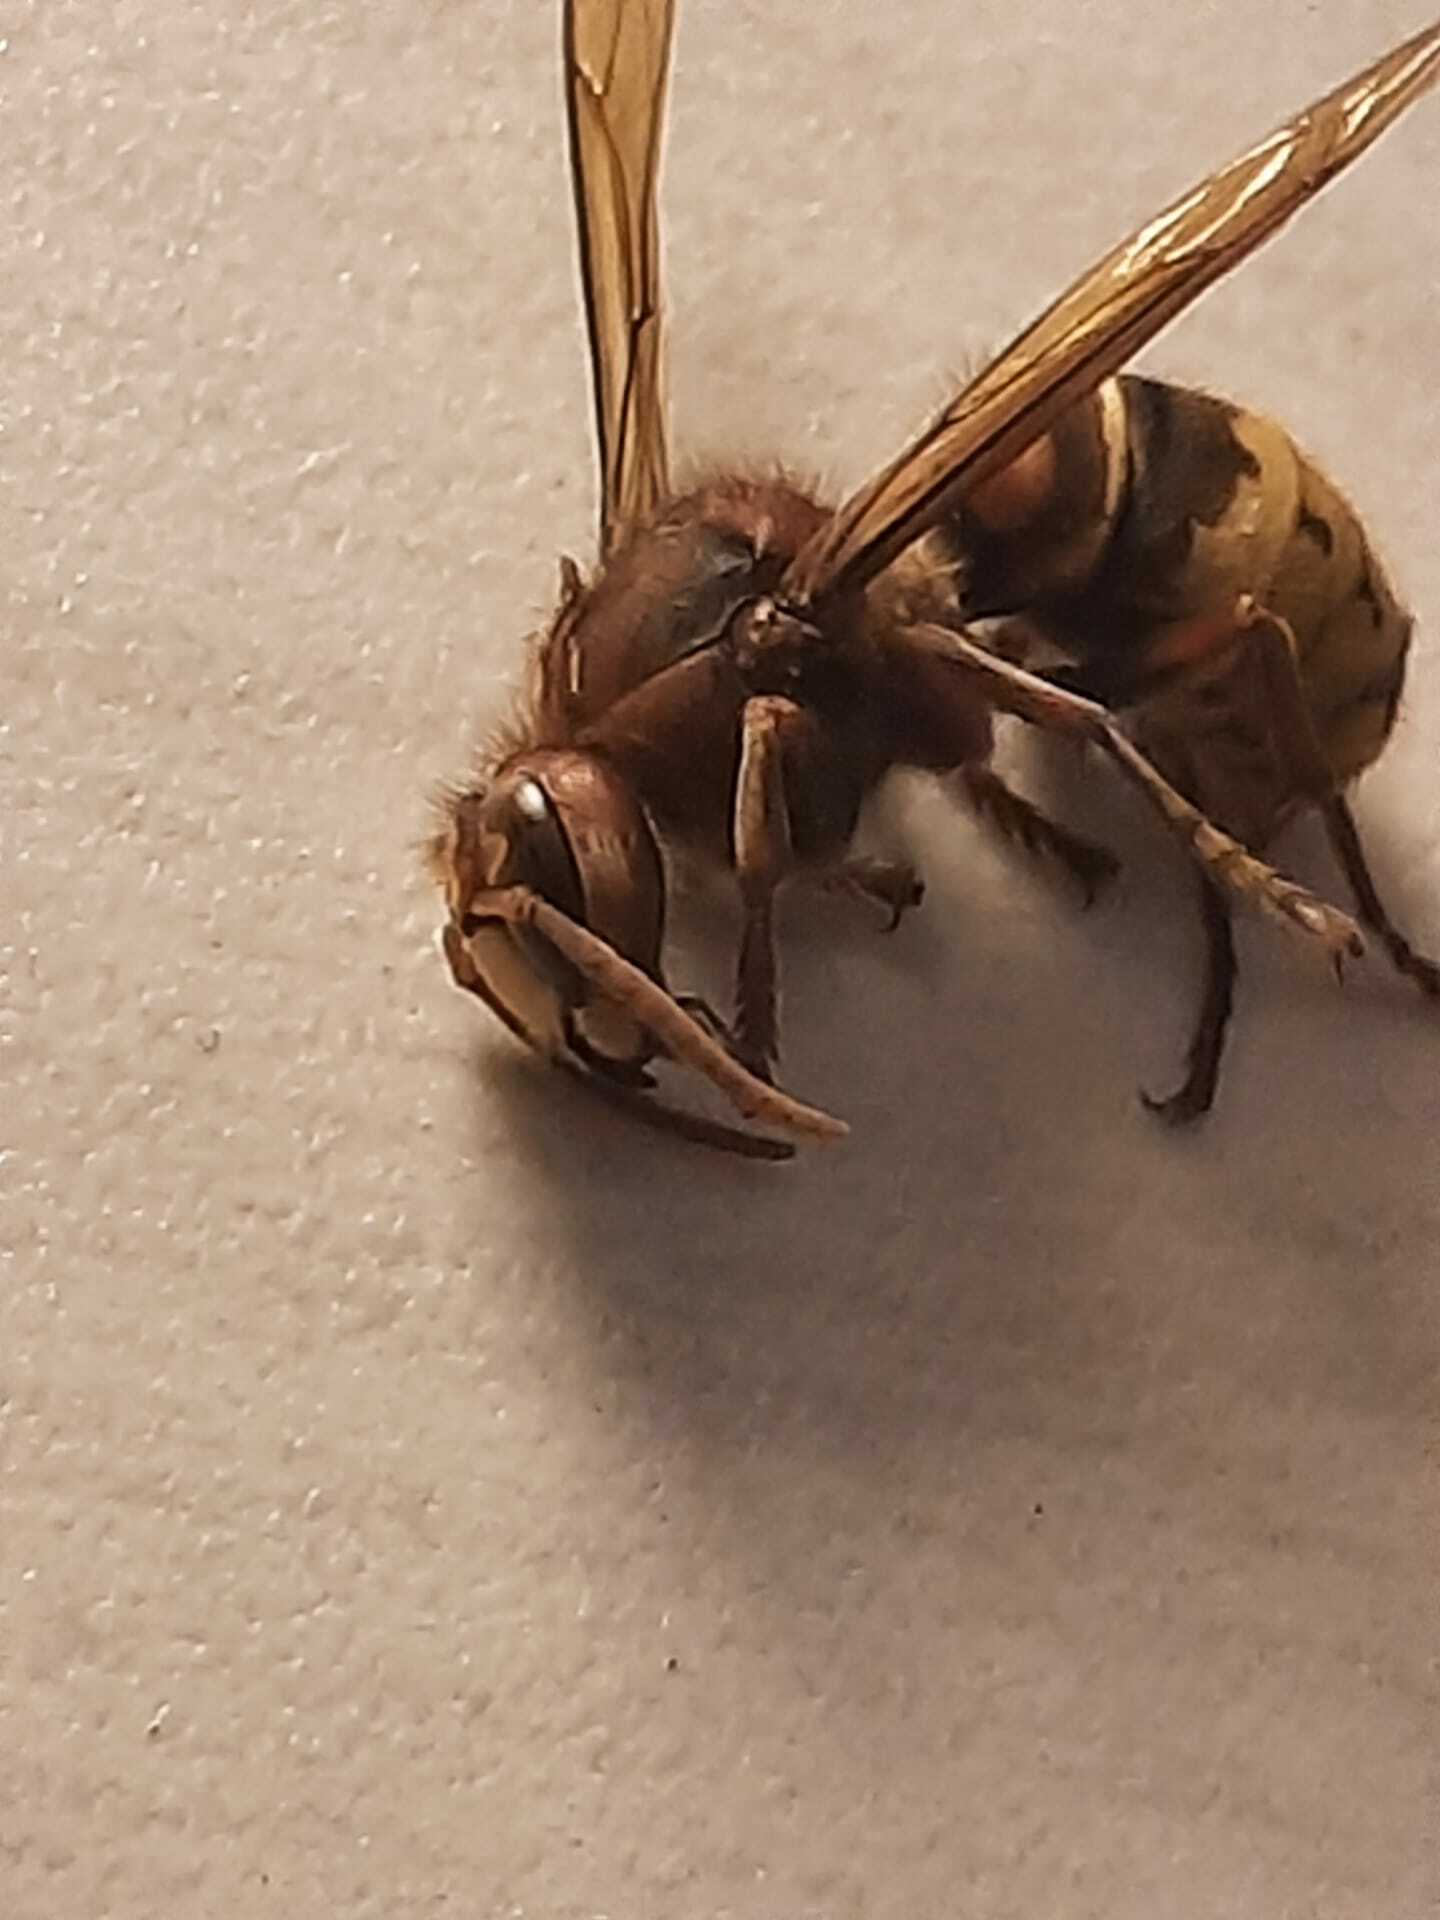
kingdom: Animalia
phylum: Arthropoda
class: Insecta
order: Hymenoptera
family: Vespidae
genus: Vespa
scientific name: Vespa crabro
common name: Hornet
